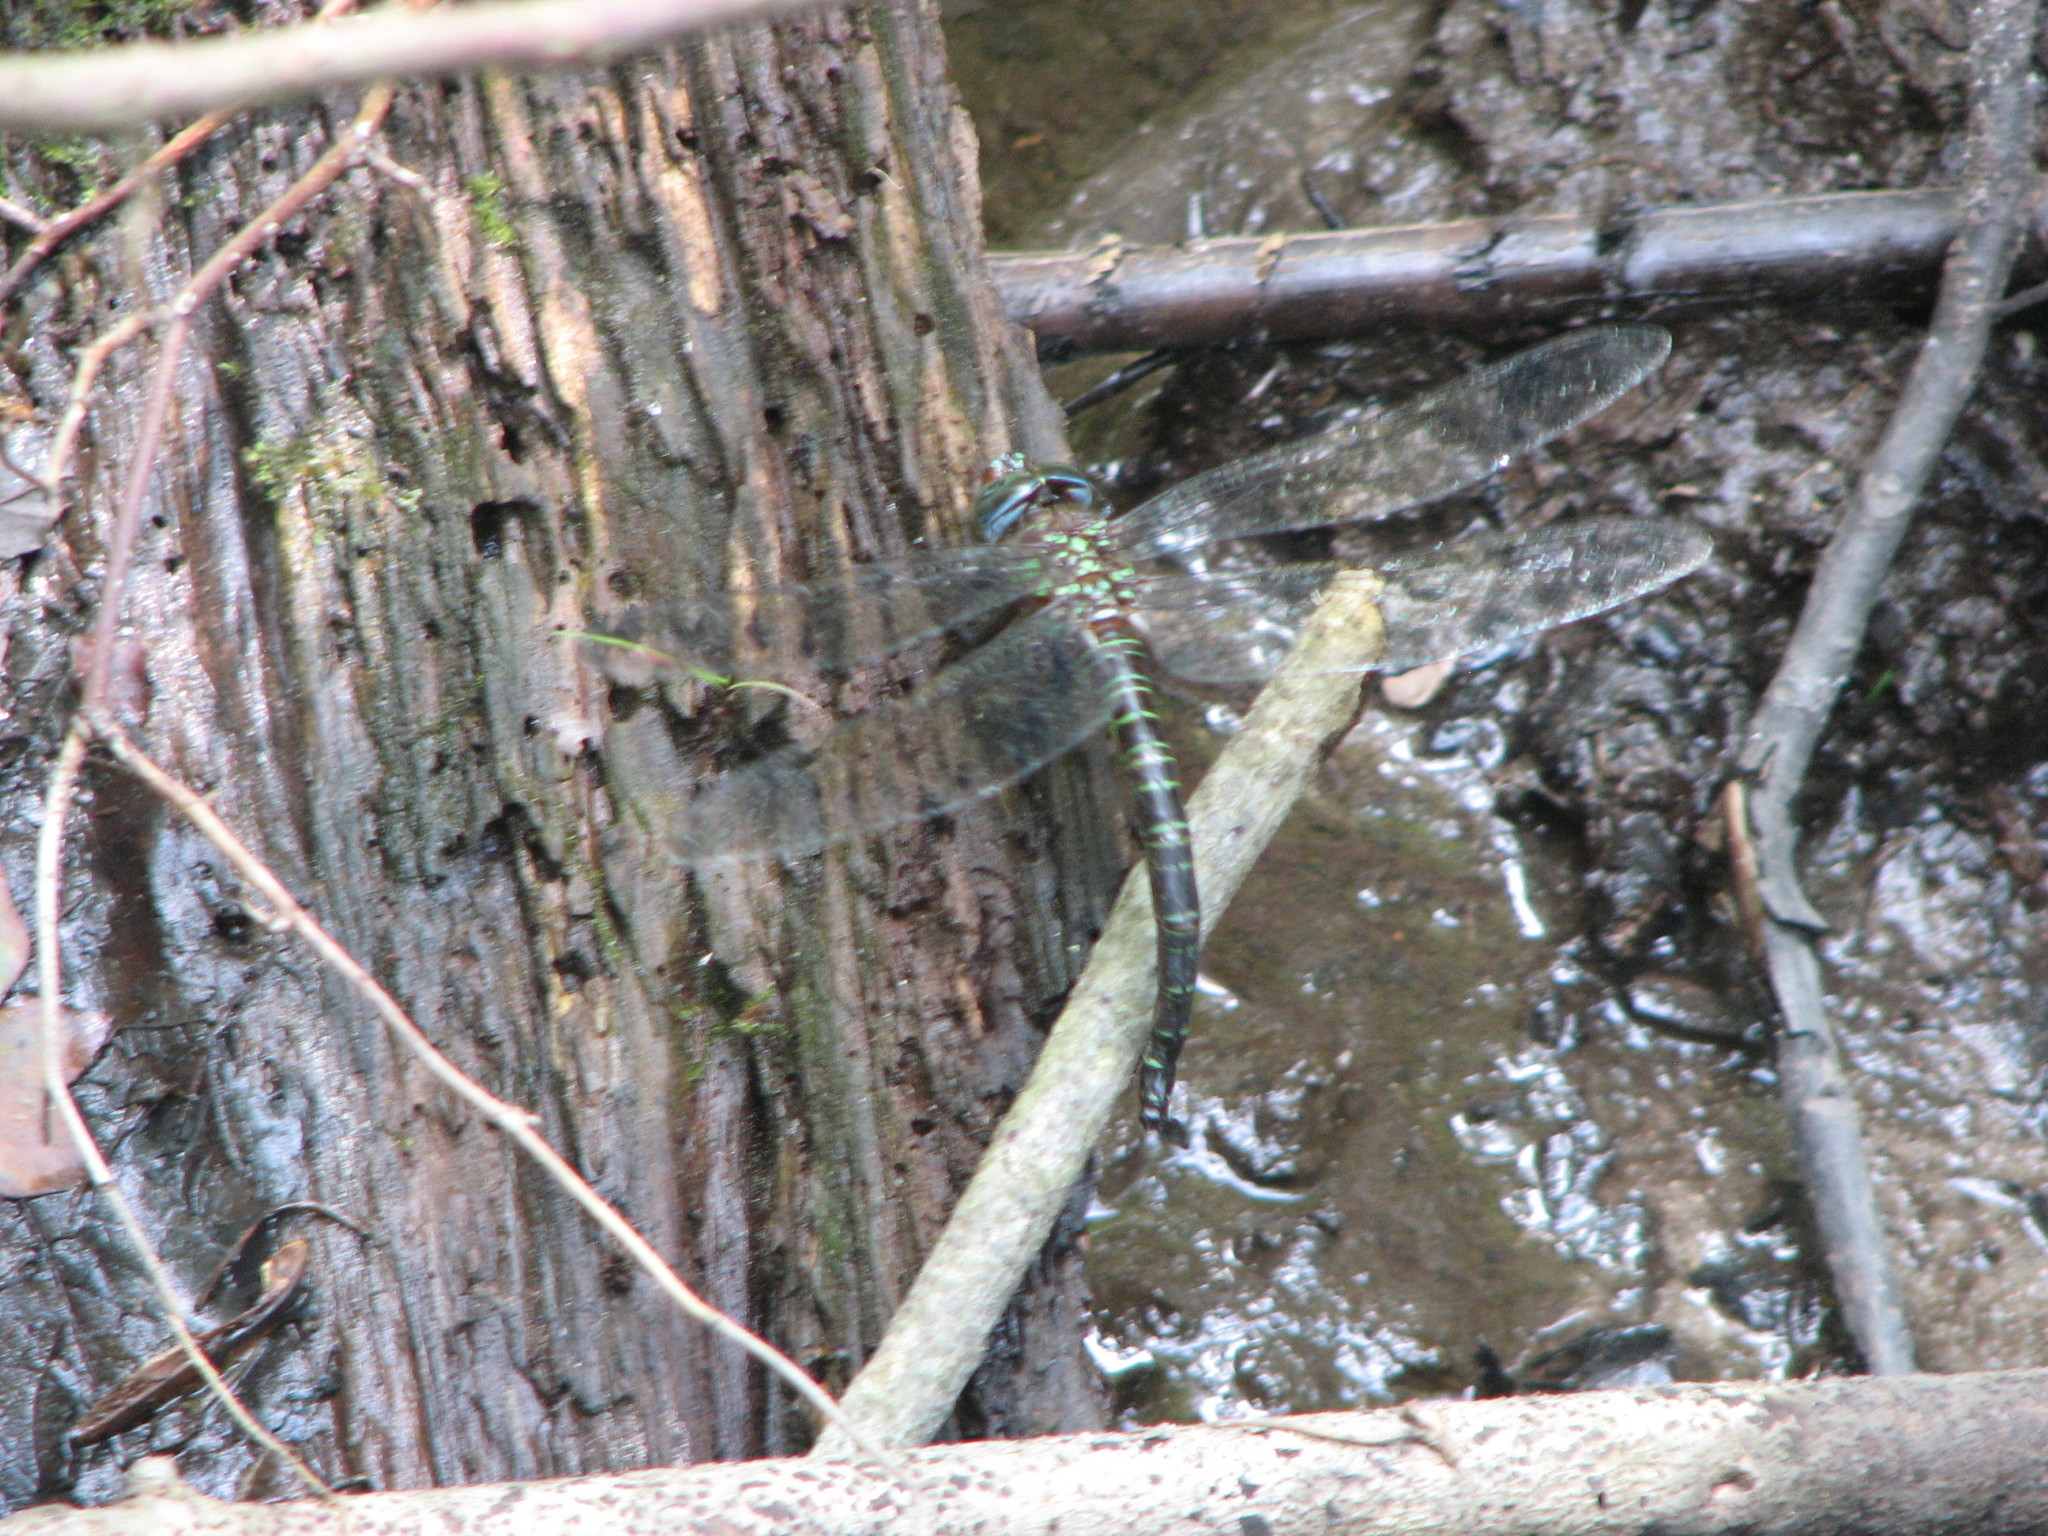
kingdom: Animalia
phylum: Arthropoda
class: Insecta
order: Odonata
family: Aeshnidae
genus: Epiaeschna
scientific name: Epiaeschna heros
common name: Swamp darner
